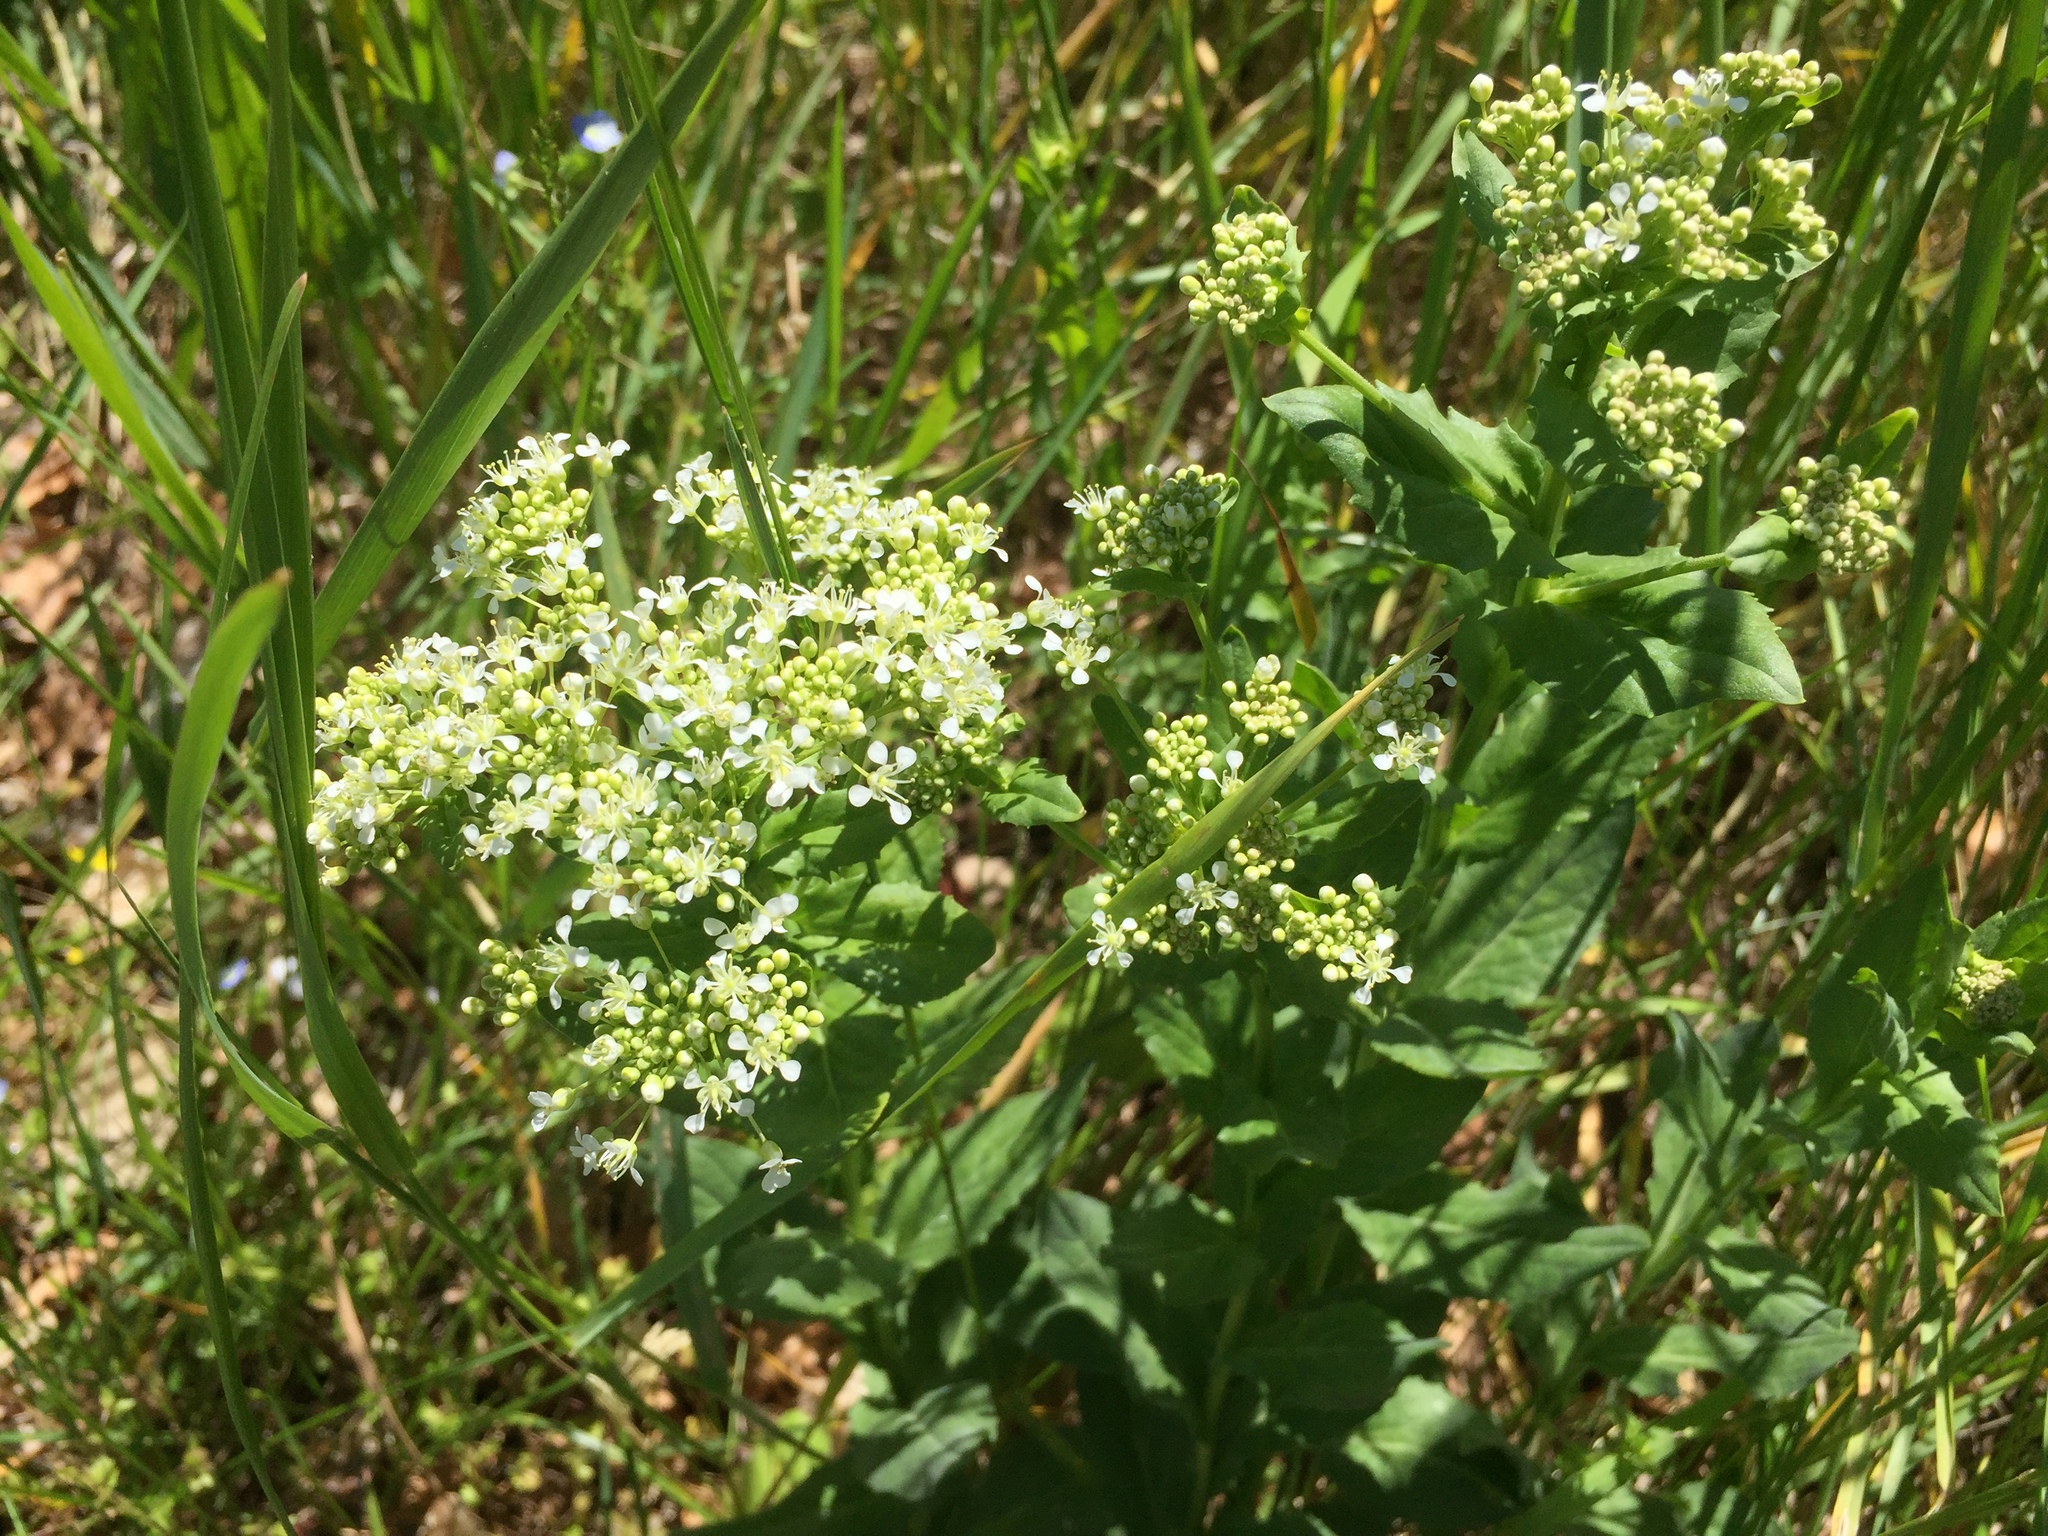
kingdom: Plantae
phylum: Tracheophyta
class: Magnoliopsida
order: Brassicales
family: Brassicaceae
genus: Lepidium
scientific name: Lepidium draba
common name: Hoary cress
